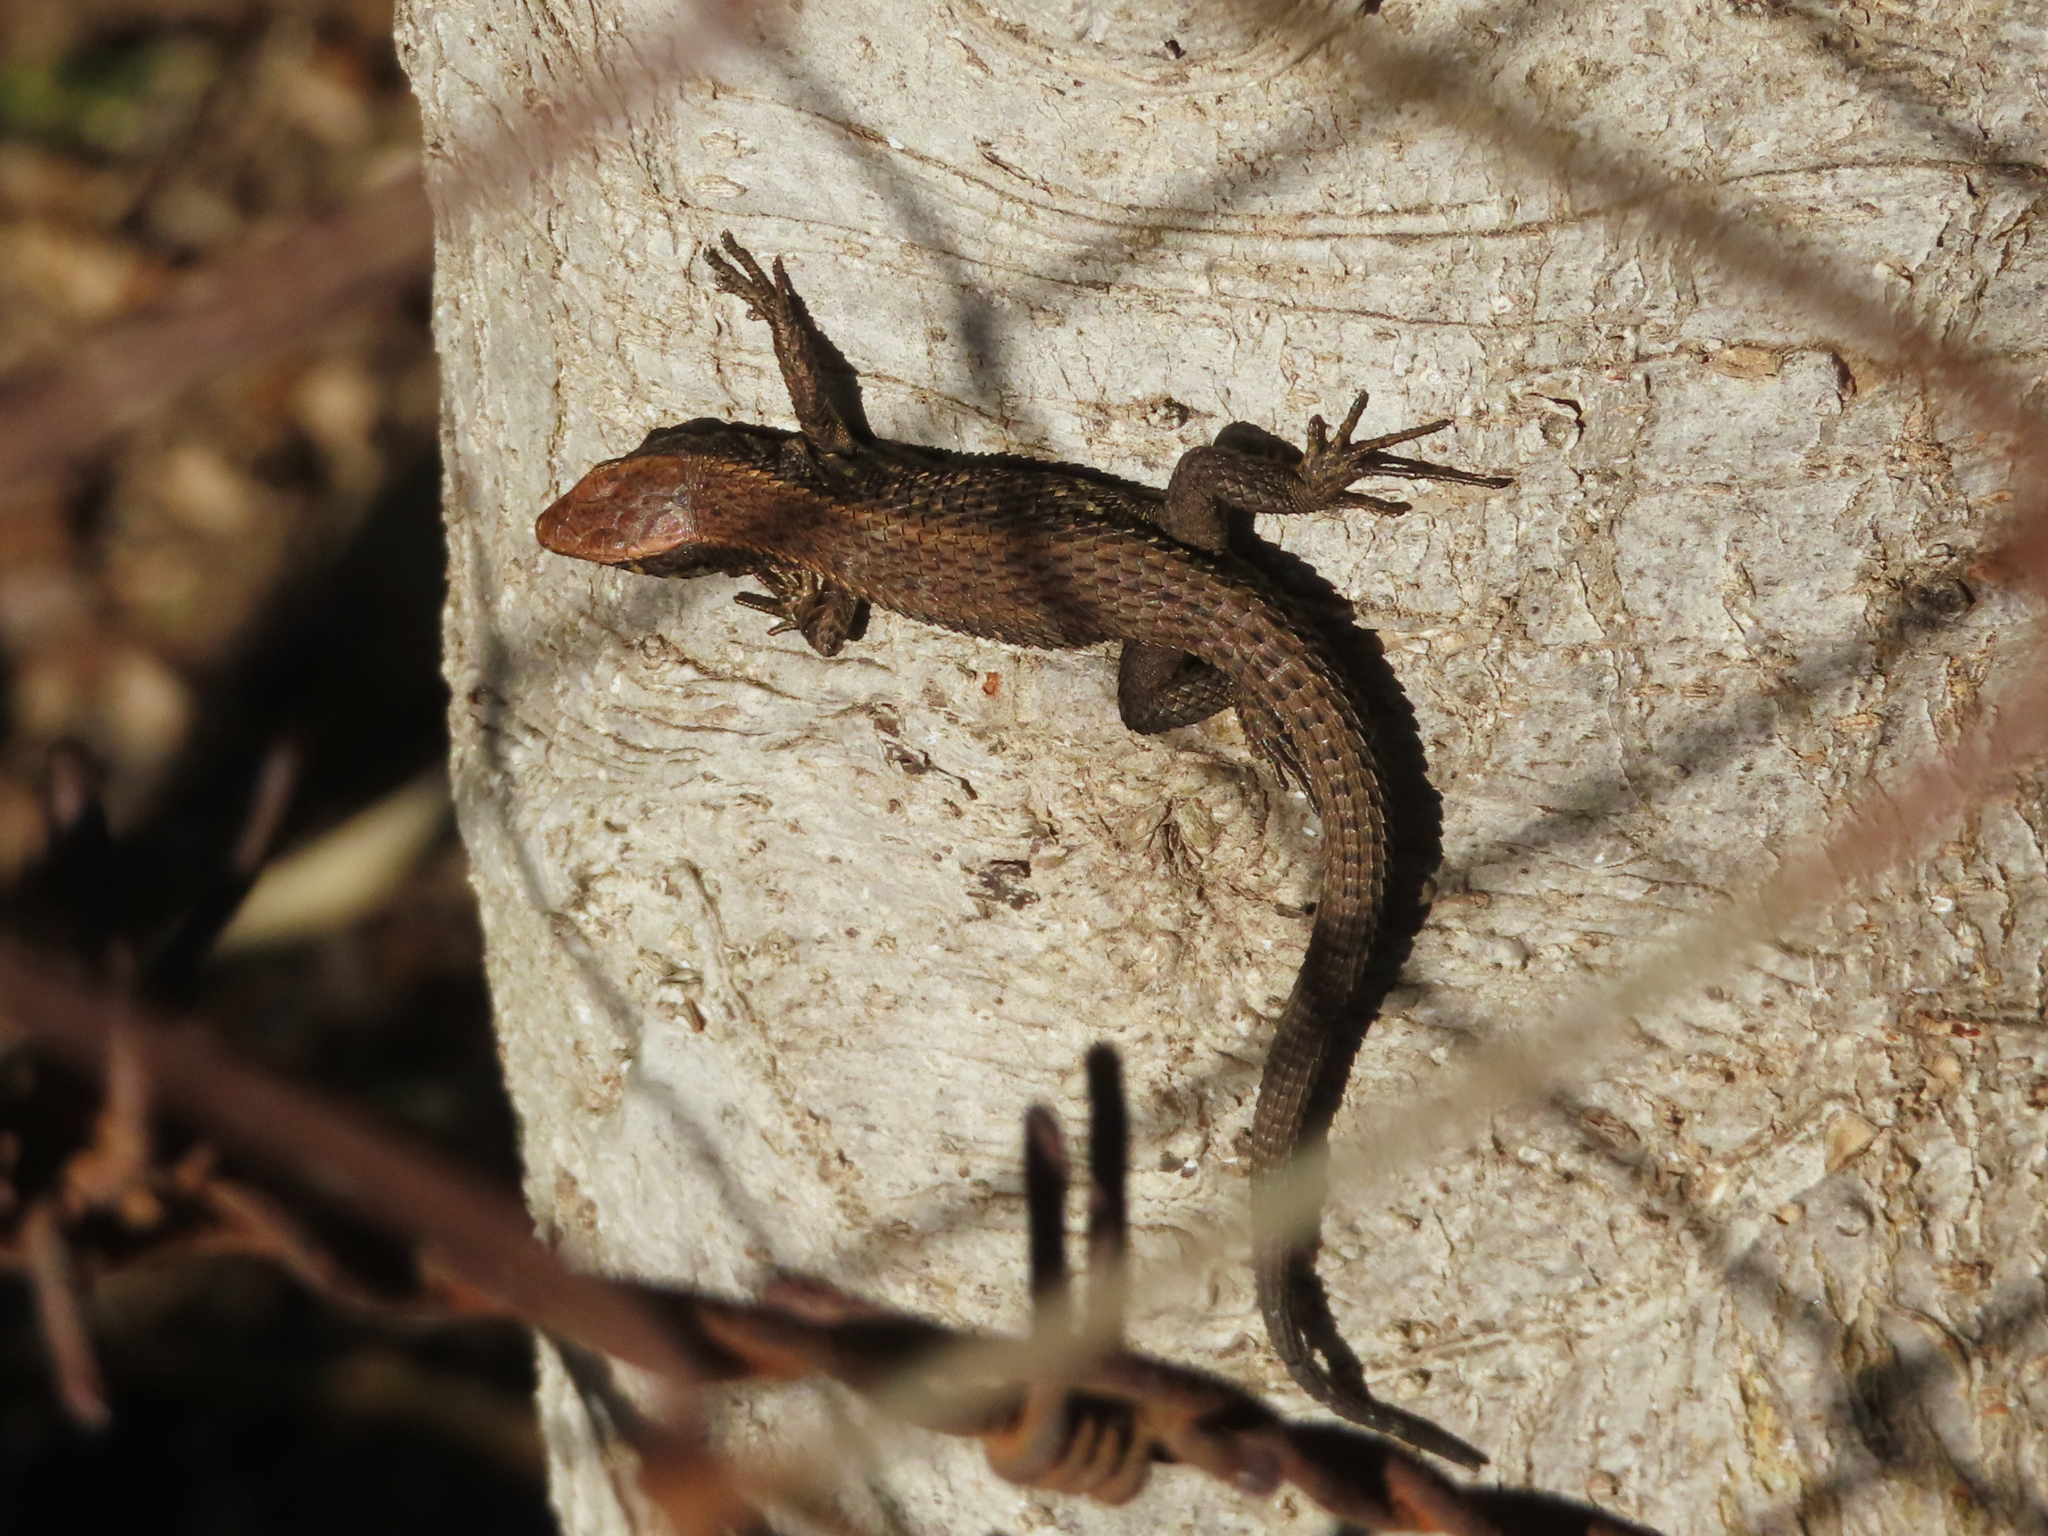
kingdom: Animalia
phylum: Chordata
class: Squamata
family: Lacertidae
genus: Algyroides
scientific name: Algyroides moreoticus
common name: Greek algyroides
